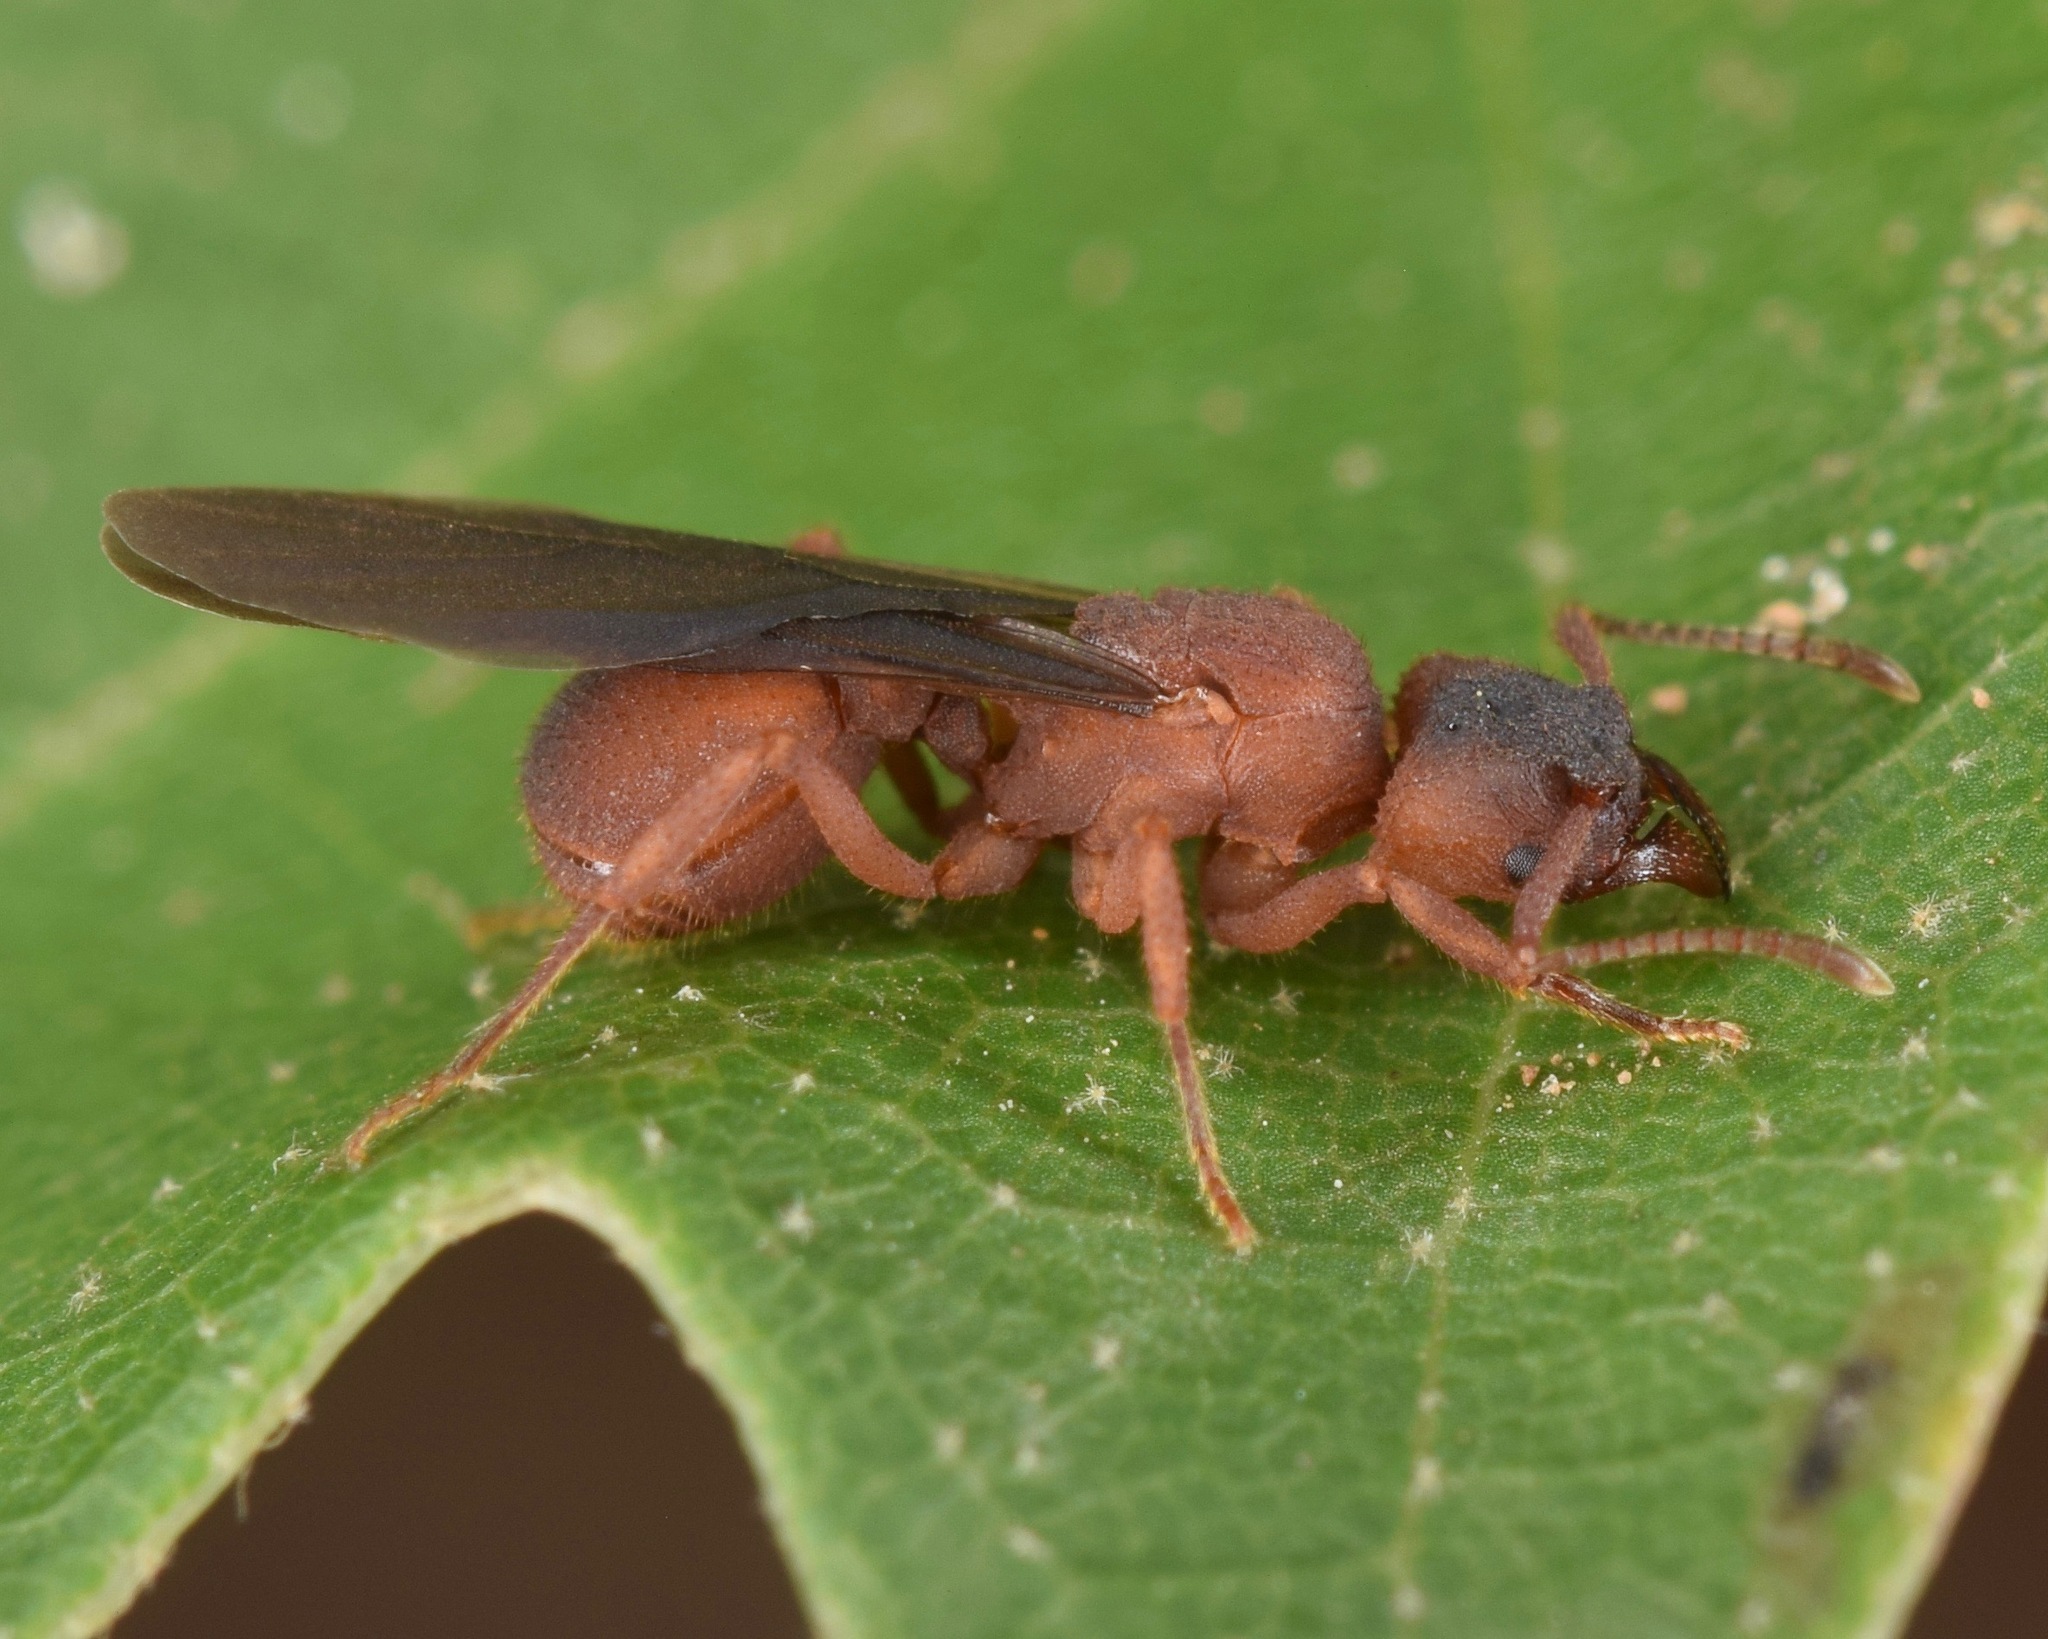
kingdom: Animalia
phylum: Arthropoda
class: Insecta
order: Hymenoptera
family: Formicidae
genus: Trachymyrmex
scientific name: Trachymyrmex septentrionalis
